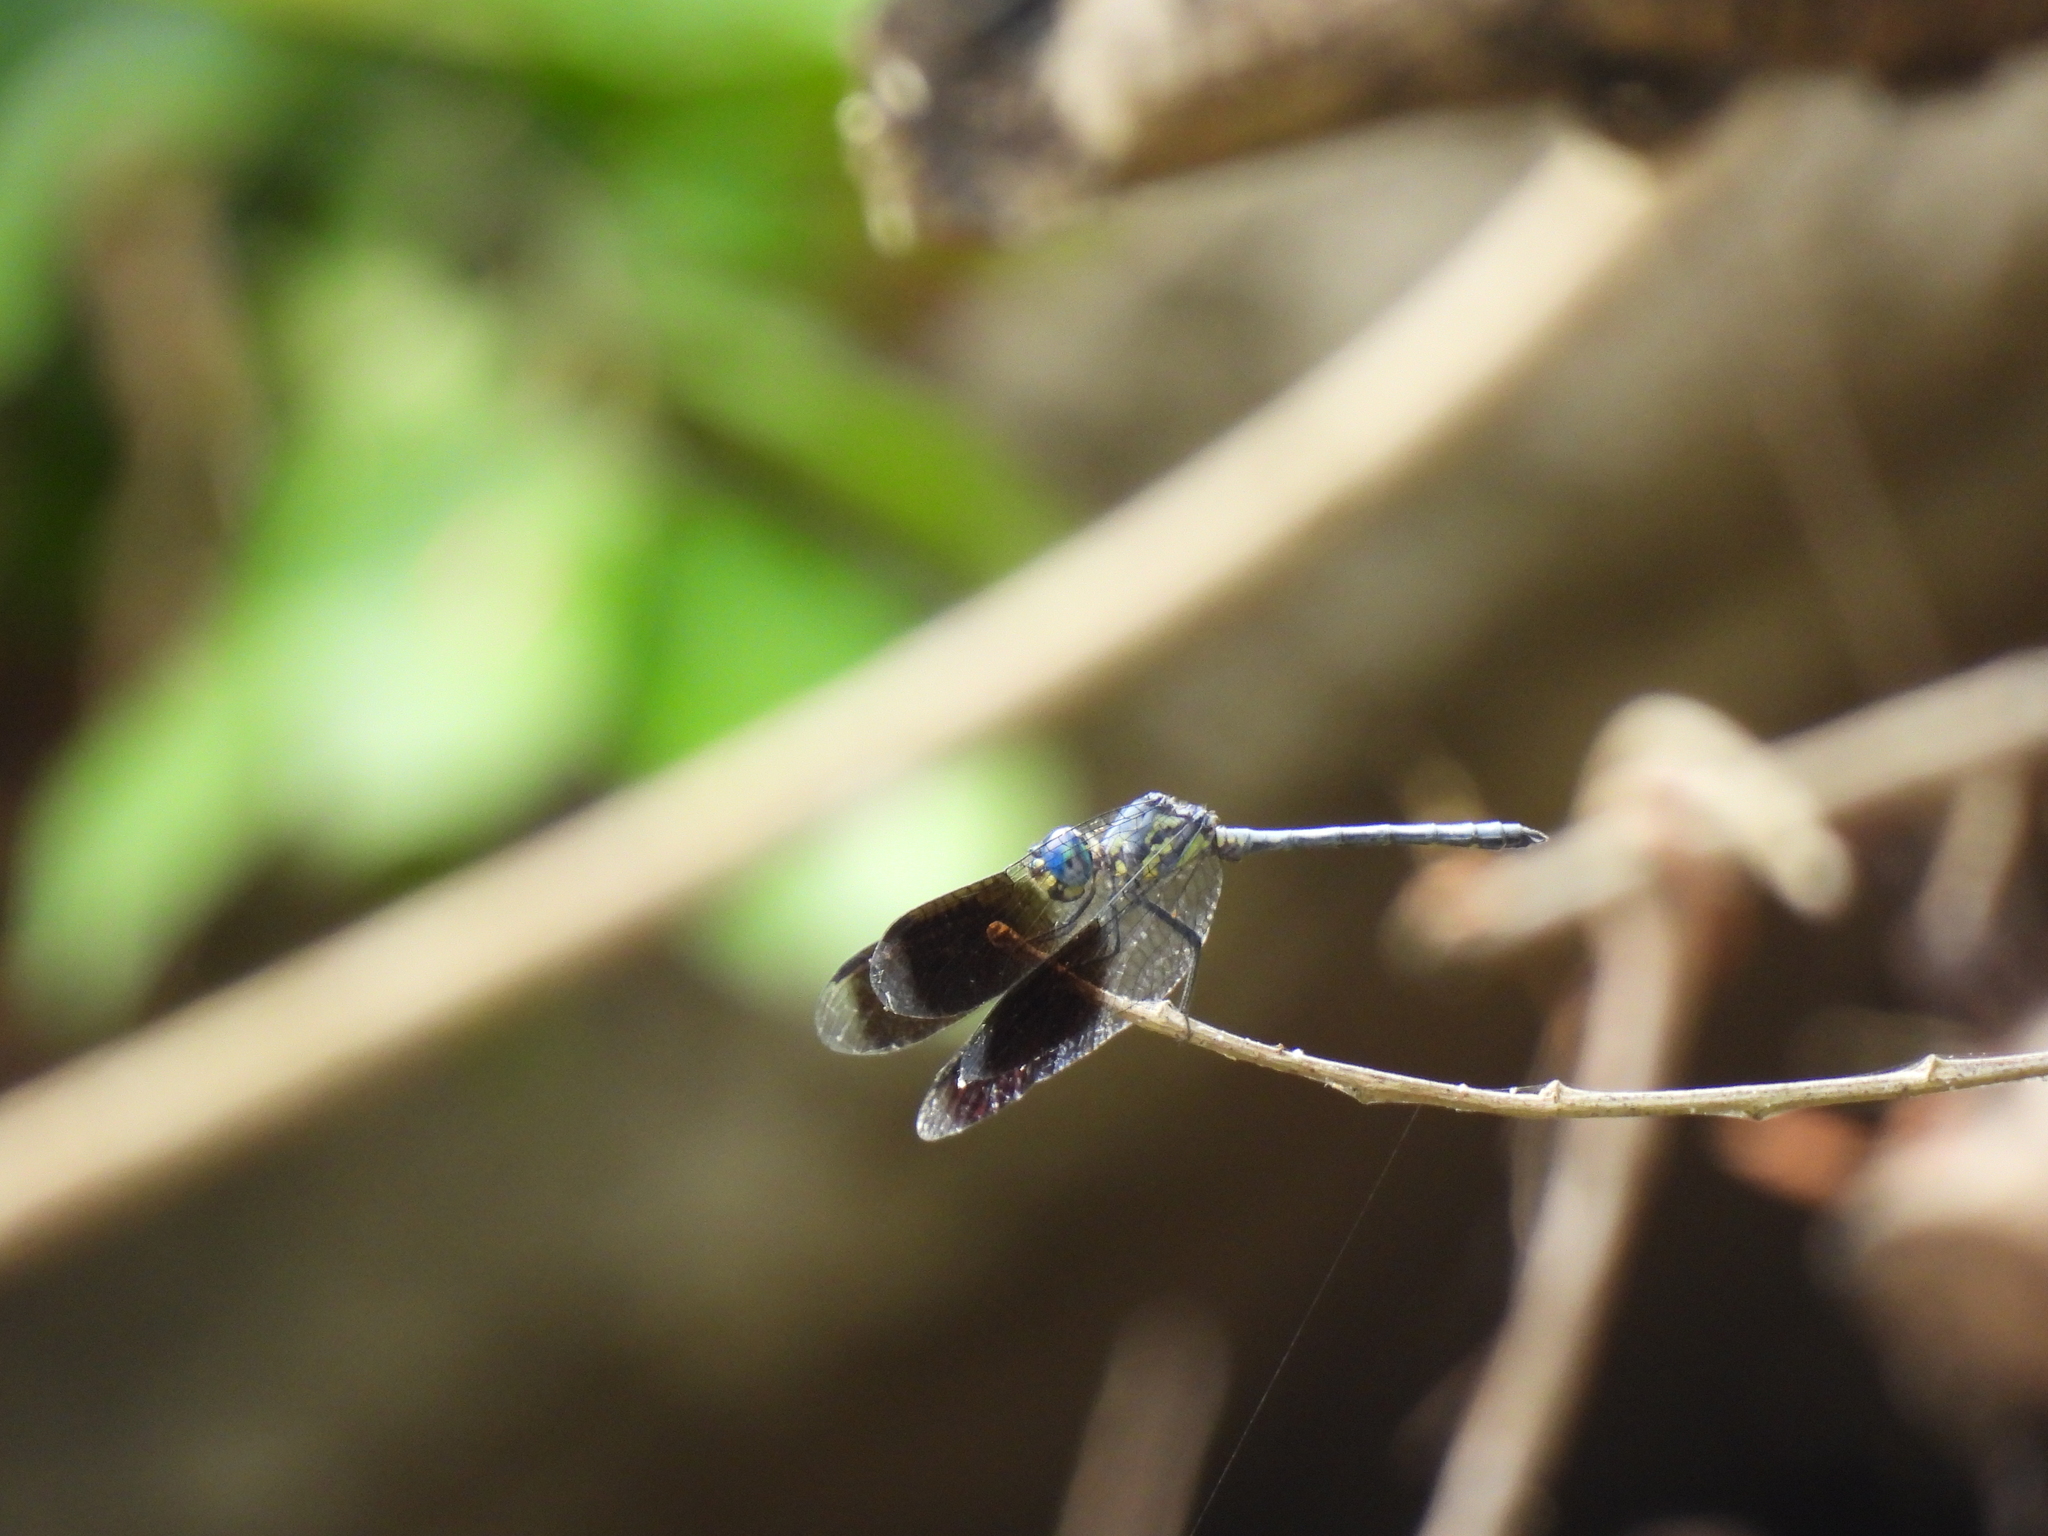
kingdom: Animalia
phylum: Arthropoda
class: Insecta
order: Odonata
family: Libellulidae
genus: Tetrathemis
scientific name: Tetrathemis polleni
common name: Black-splashed elf
